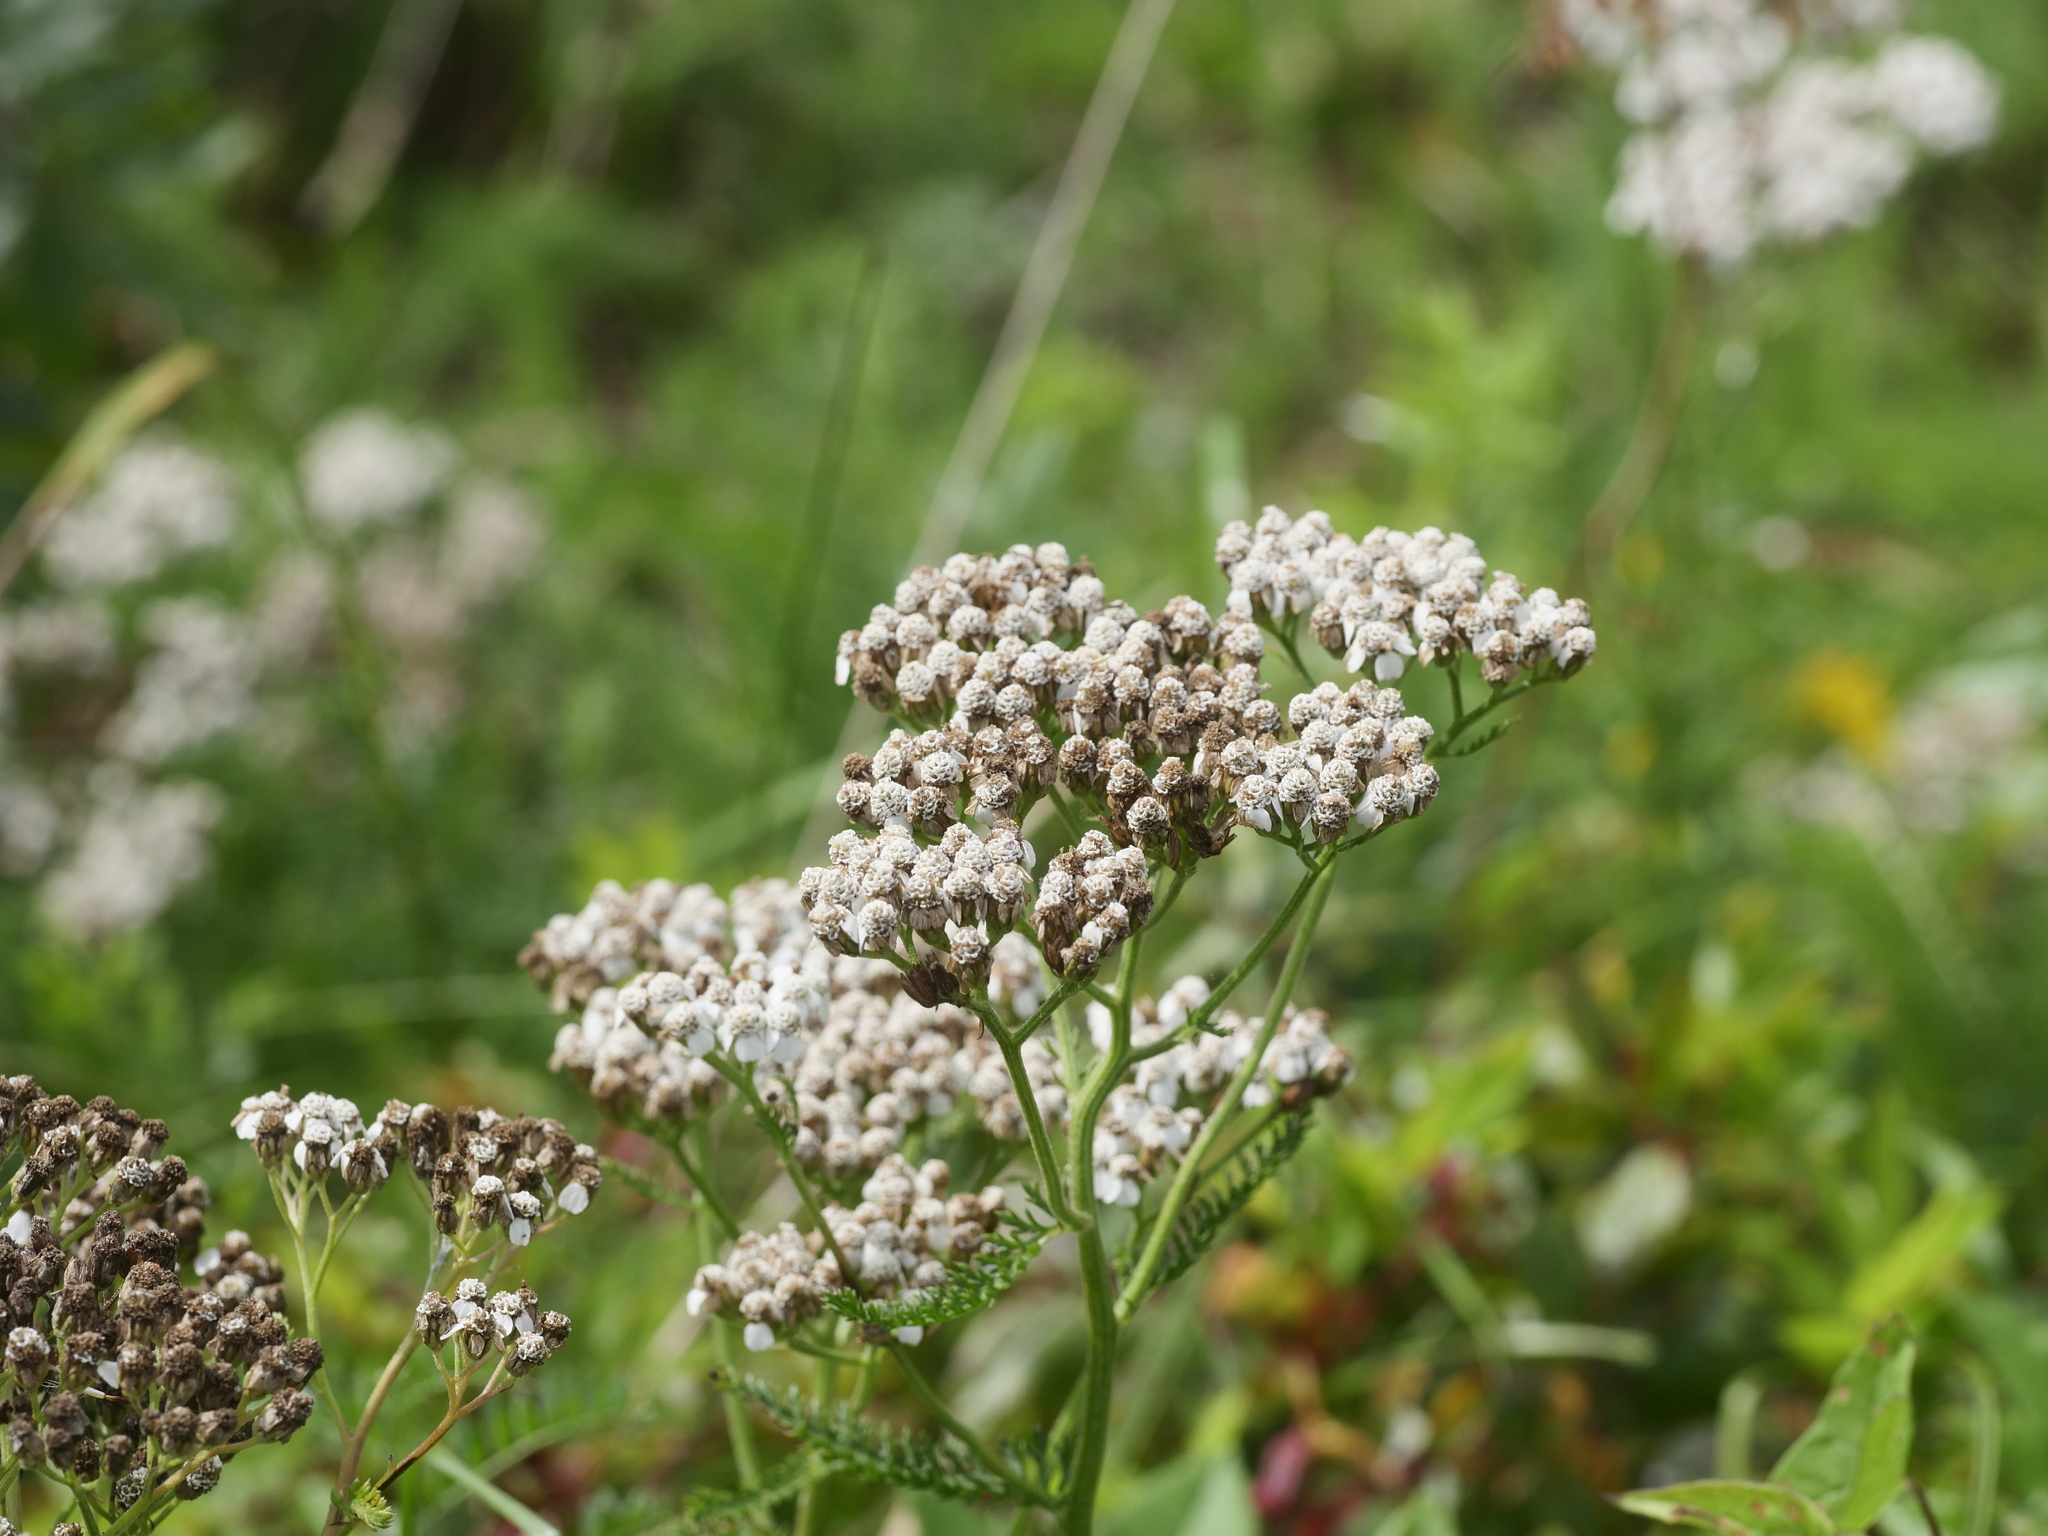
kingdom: Plantae
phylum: Tracheophyta
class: Magnoliopsida
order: Asterales
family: Asteraceae
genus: Achillea
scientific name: Achillea millefolium
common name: Yarrow
